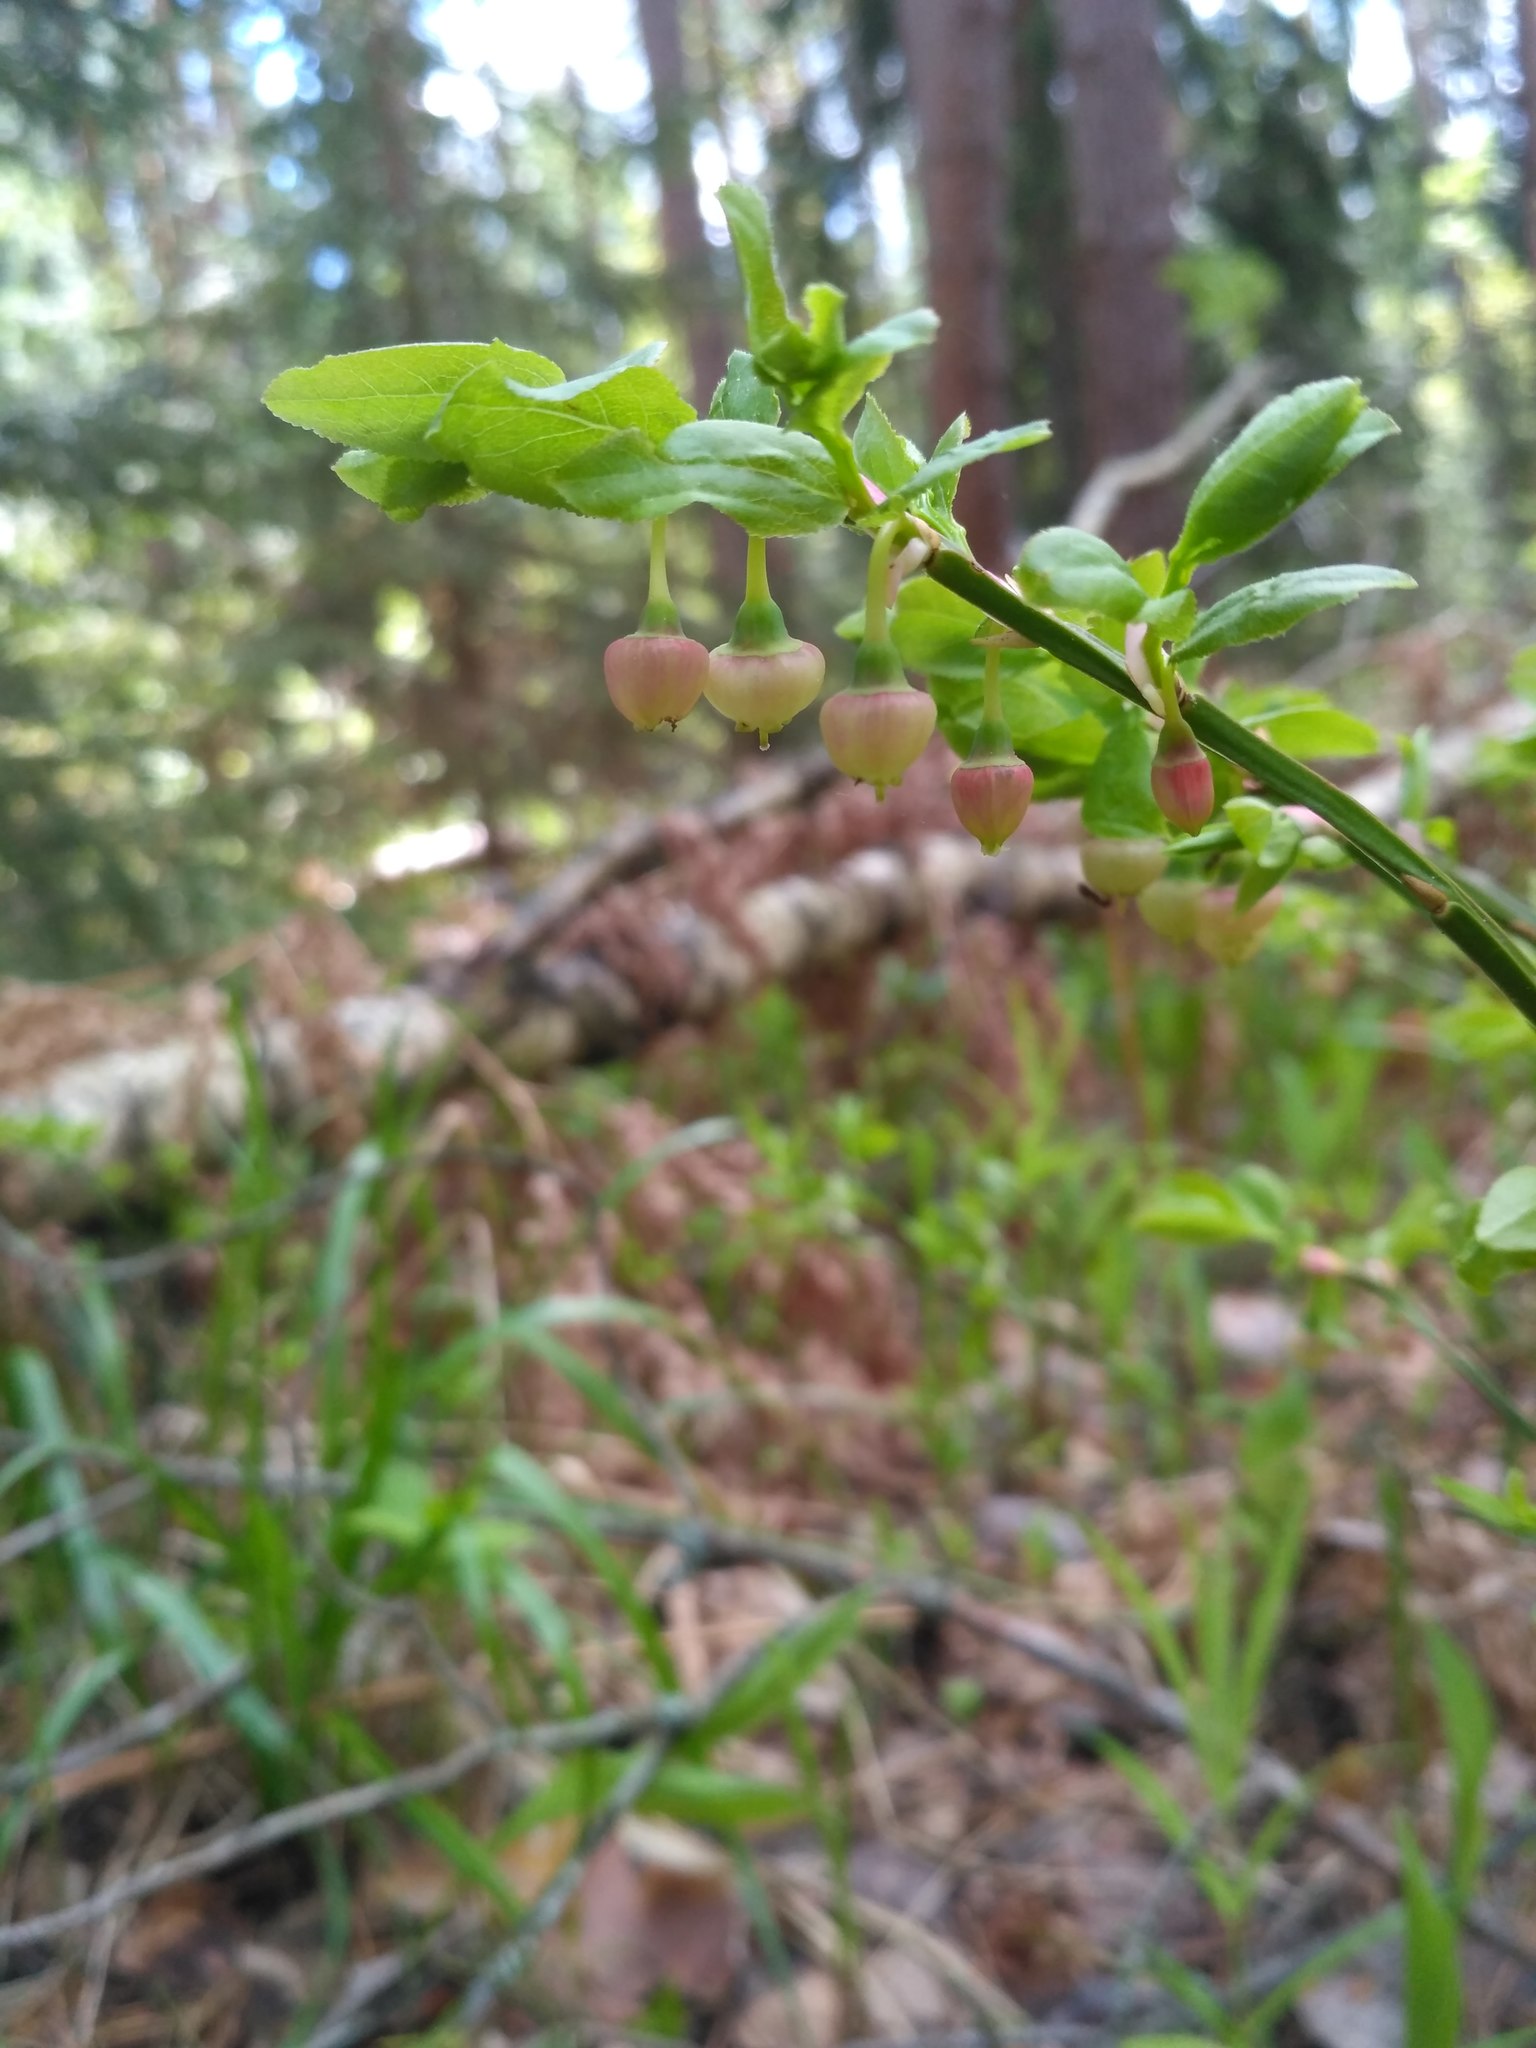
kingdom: Plantae
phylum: Tracheophyta
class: Magnoliopsida
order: Ericales
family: Ericaceae
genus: Vaccinium
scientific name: Vaccinium myrtillus
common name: Bilberry
